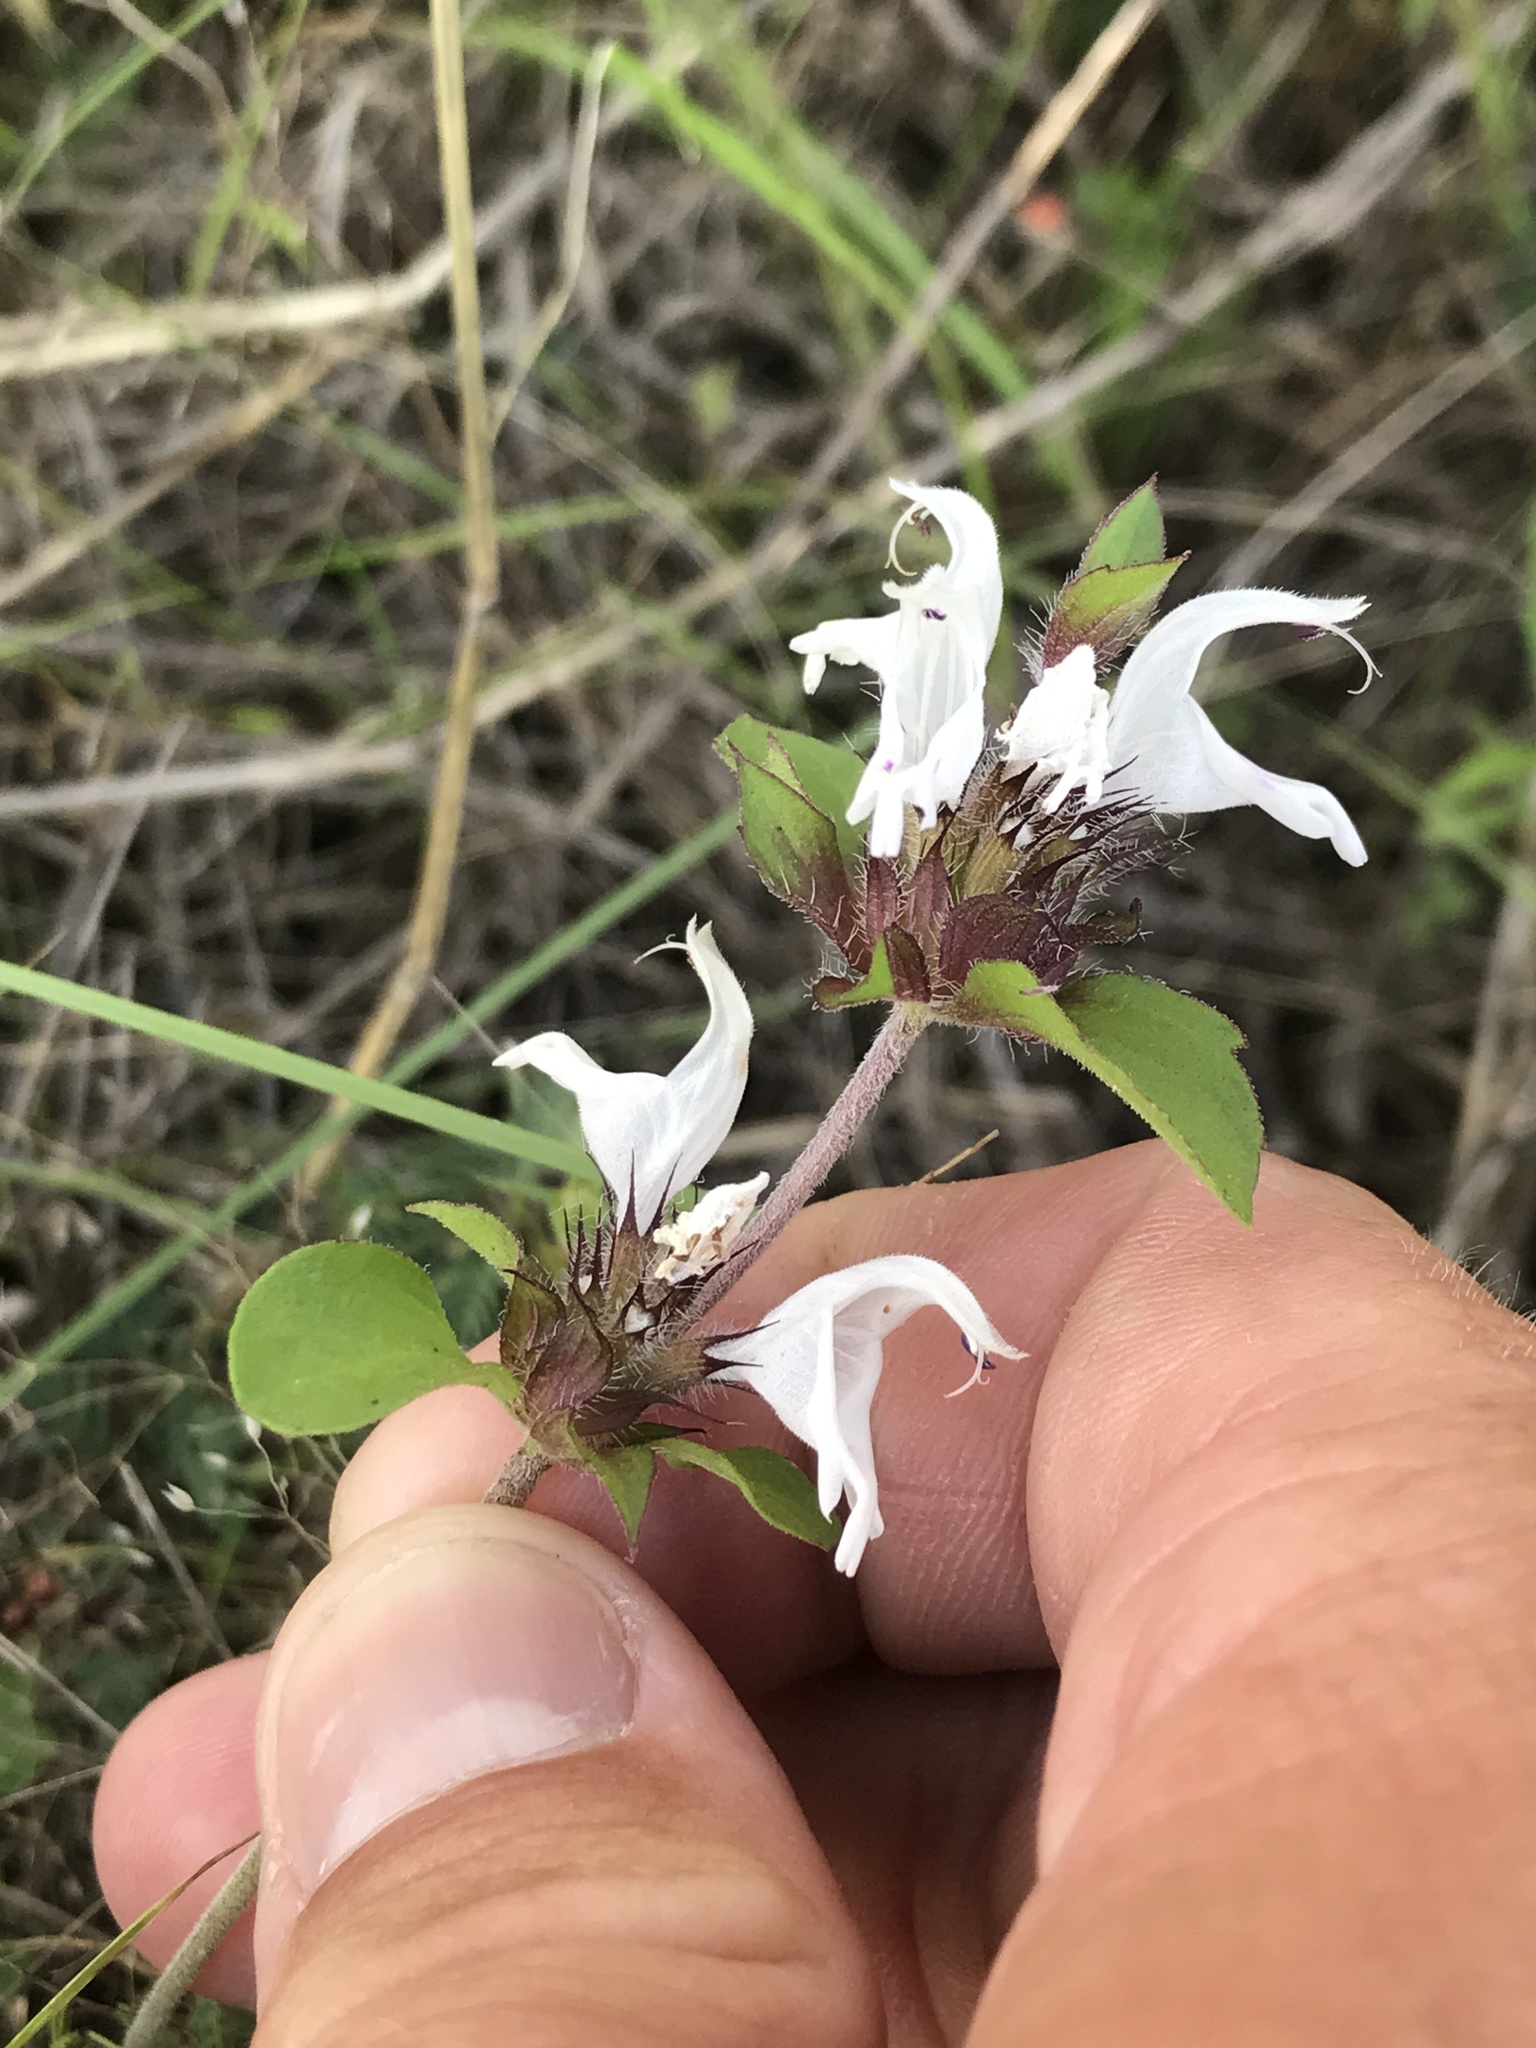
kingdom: Plantae
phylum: Tracheophyta
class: Magnoliopsida
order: Lamiales
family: Lamiaceae
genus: Monarda
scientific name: Monarda clinopodioides
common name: Basil beebalm
